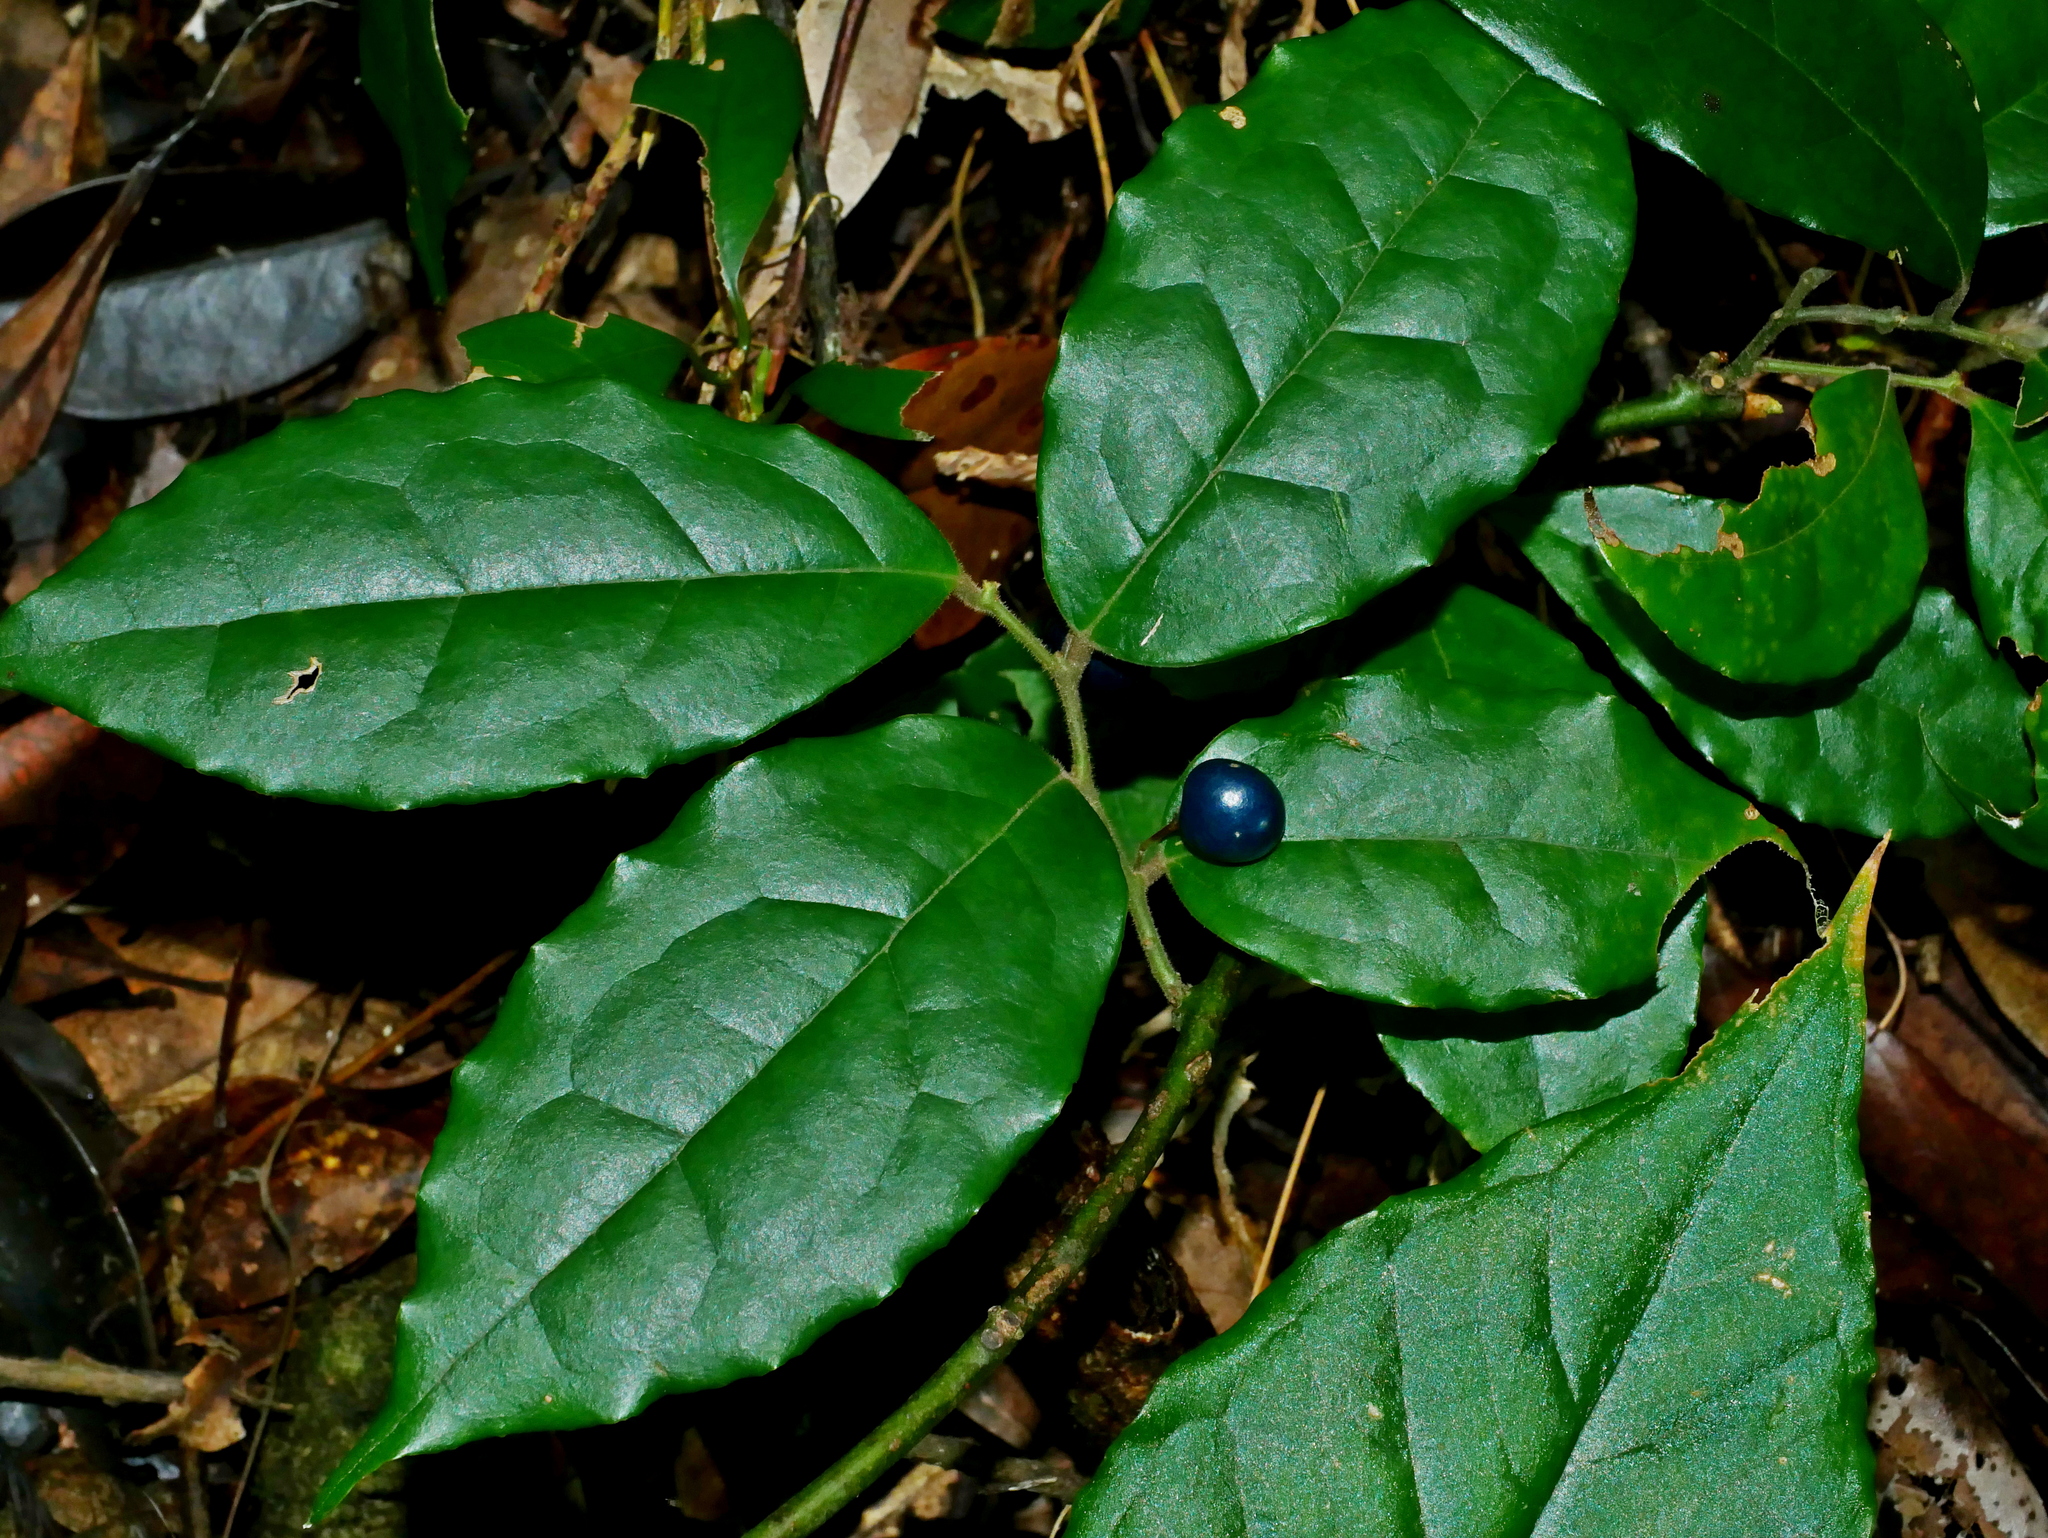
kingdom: Plantae
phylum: Tracheophyta
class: Magnoliopsida
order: Proteales
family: Sabiaceae
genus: Sabia
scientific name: Sabia swinhoei
